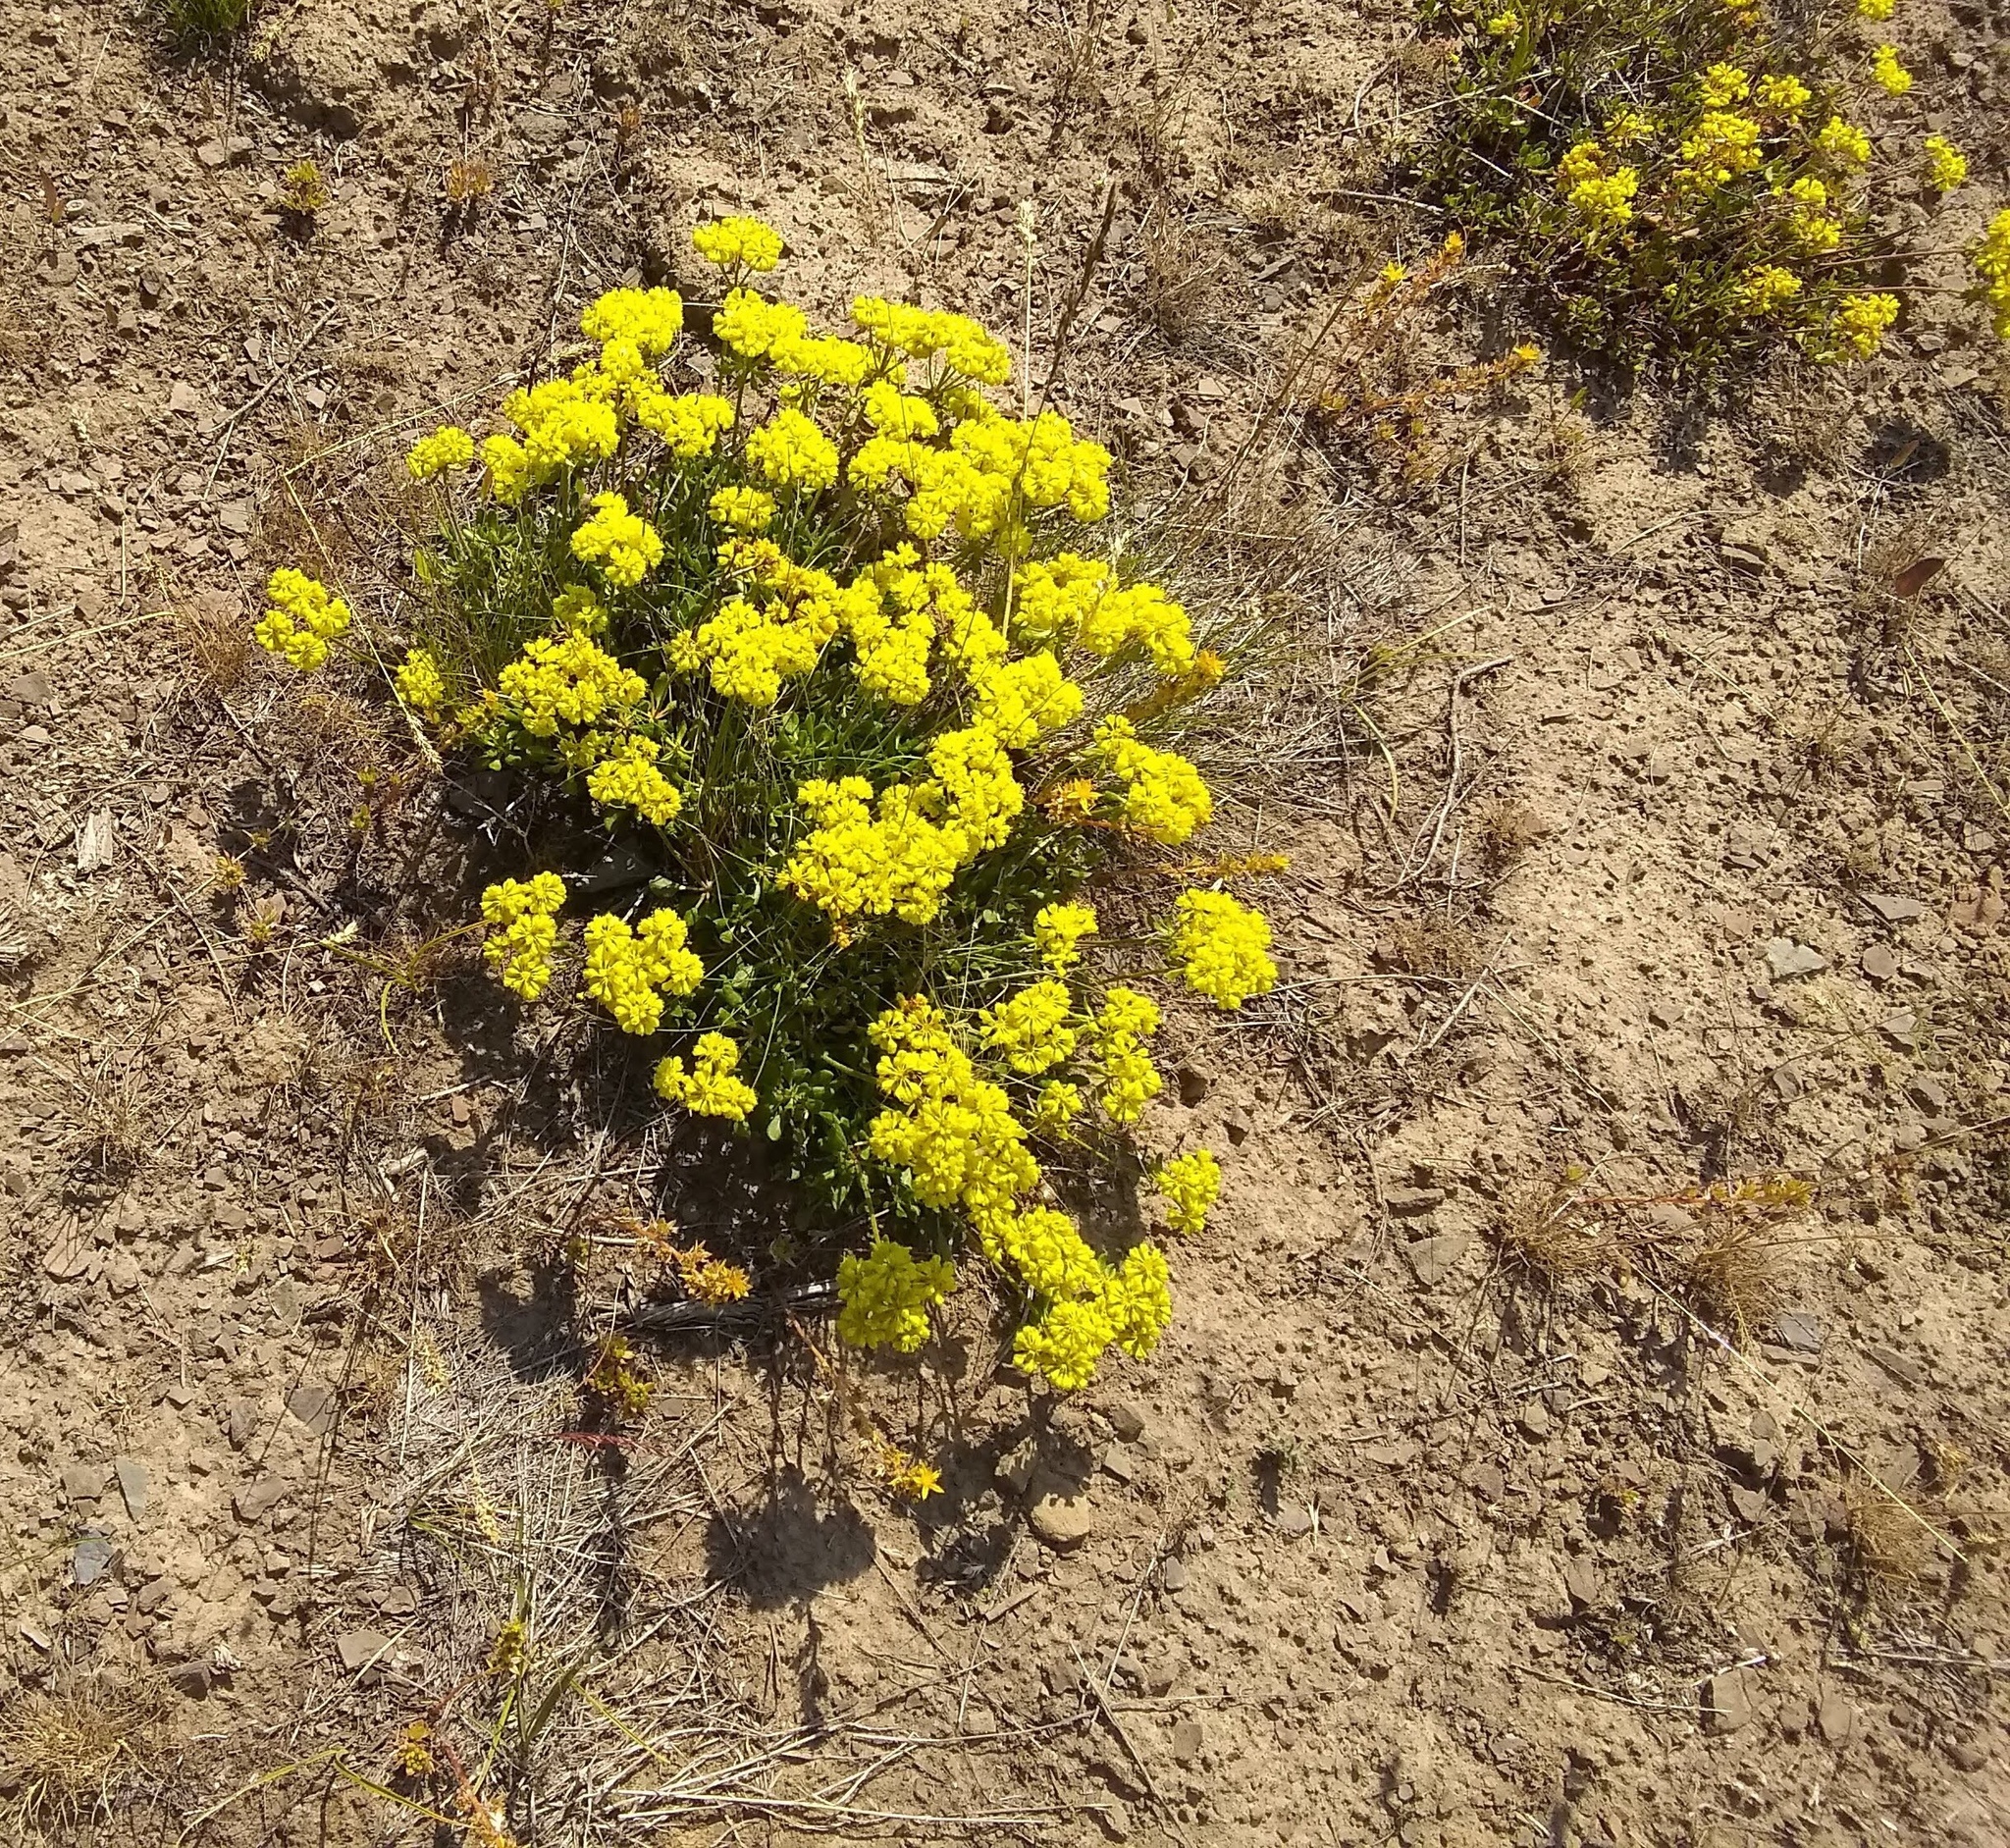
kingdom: Plantae
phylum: Tracheophyta
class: Magnoliopsida
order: Caryophyllales
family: Polygonaceae
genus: Eriogonum
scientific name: Eriogonum umbellatum
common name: Sulfur-buckwheat
